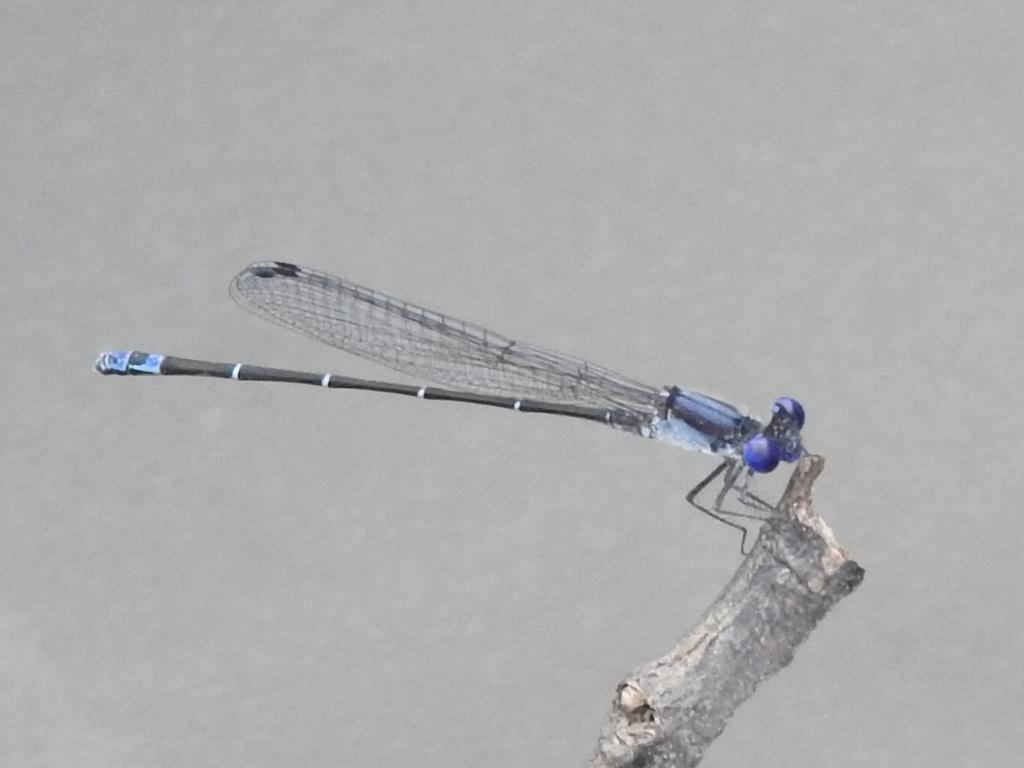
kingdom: Animalia
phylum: Arthropoda
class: Insecta
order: Odonata
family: Coenagrionidae
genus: Argia
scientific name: Argia translata
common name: Dusky dancer
